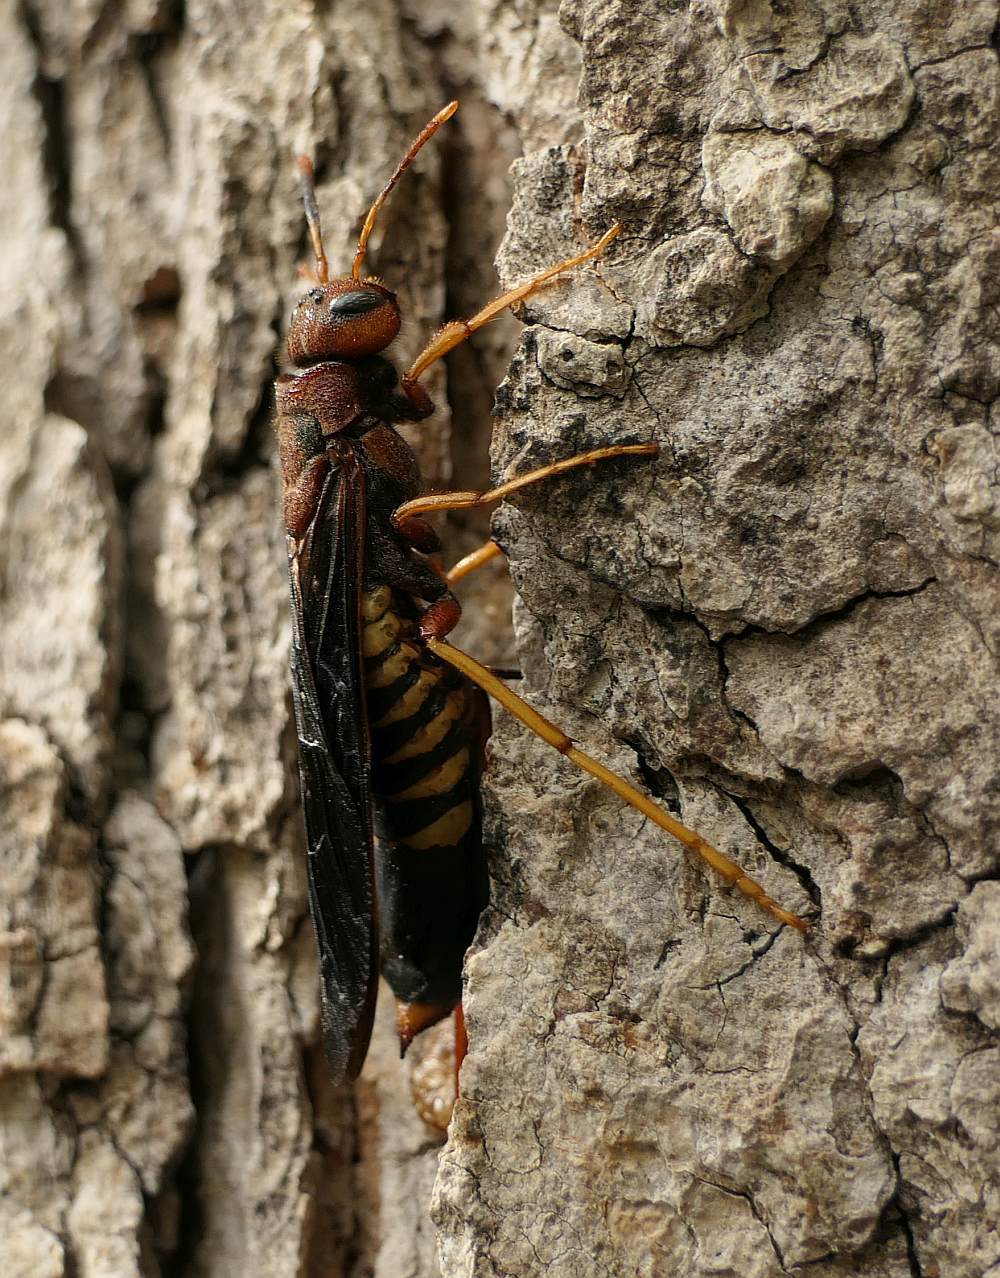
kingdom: Animalia
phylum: Arthropoda
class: Insecta
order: Hymenoptera
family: Siricidae
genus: Tremex
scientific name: Tremex columba
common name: Wasp
